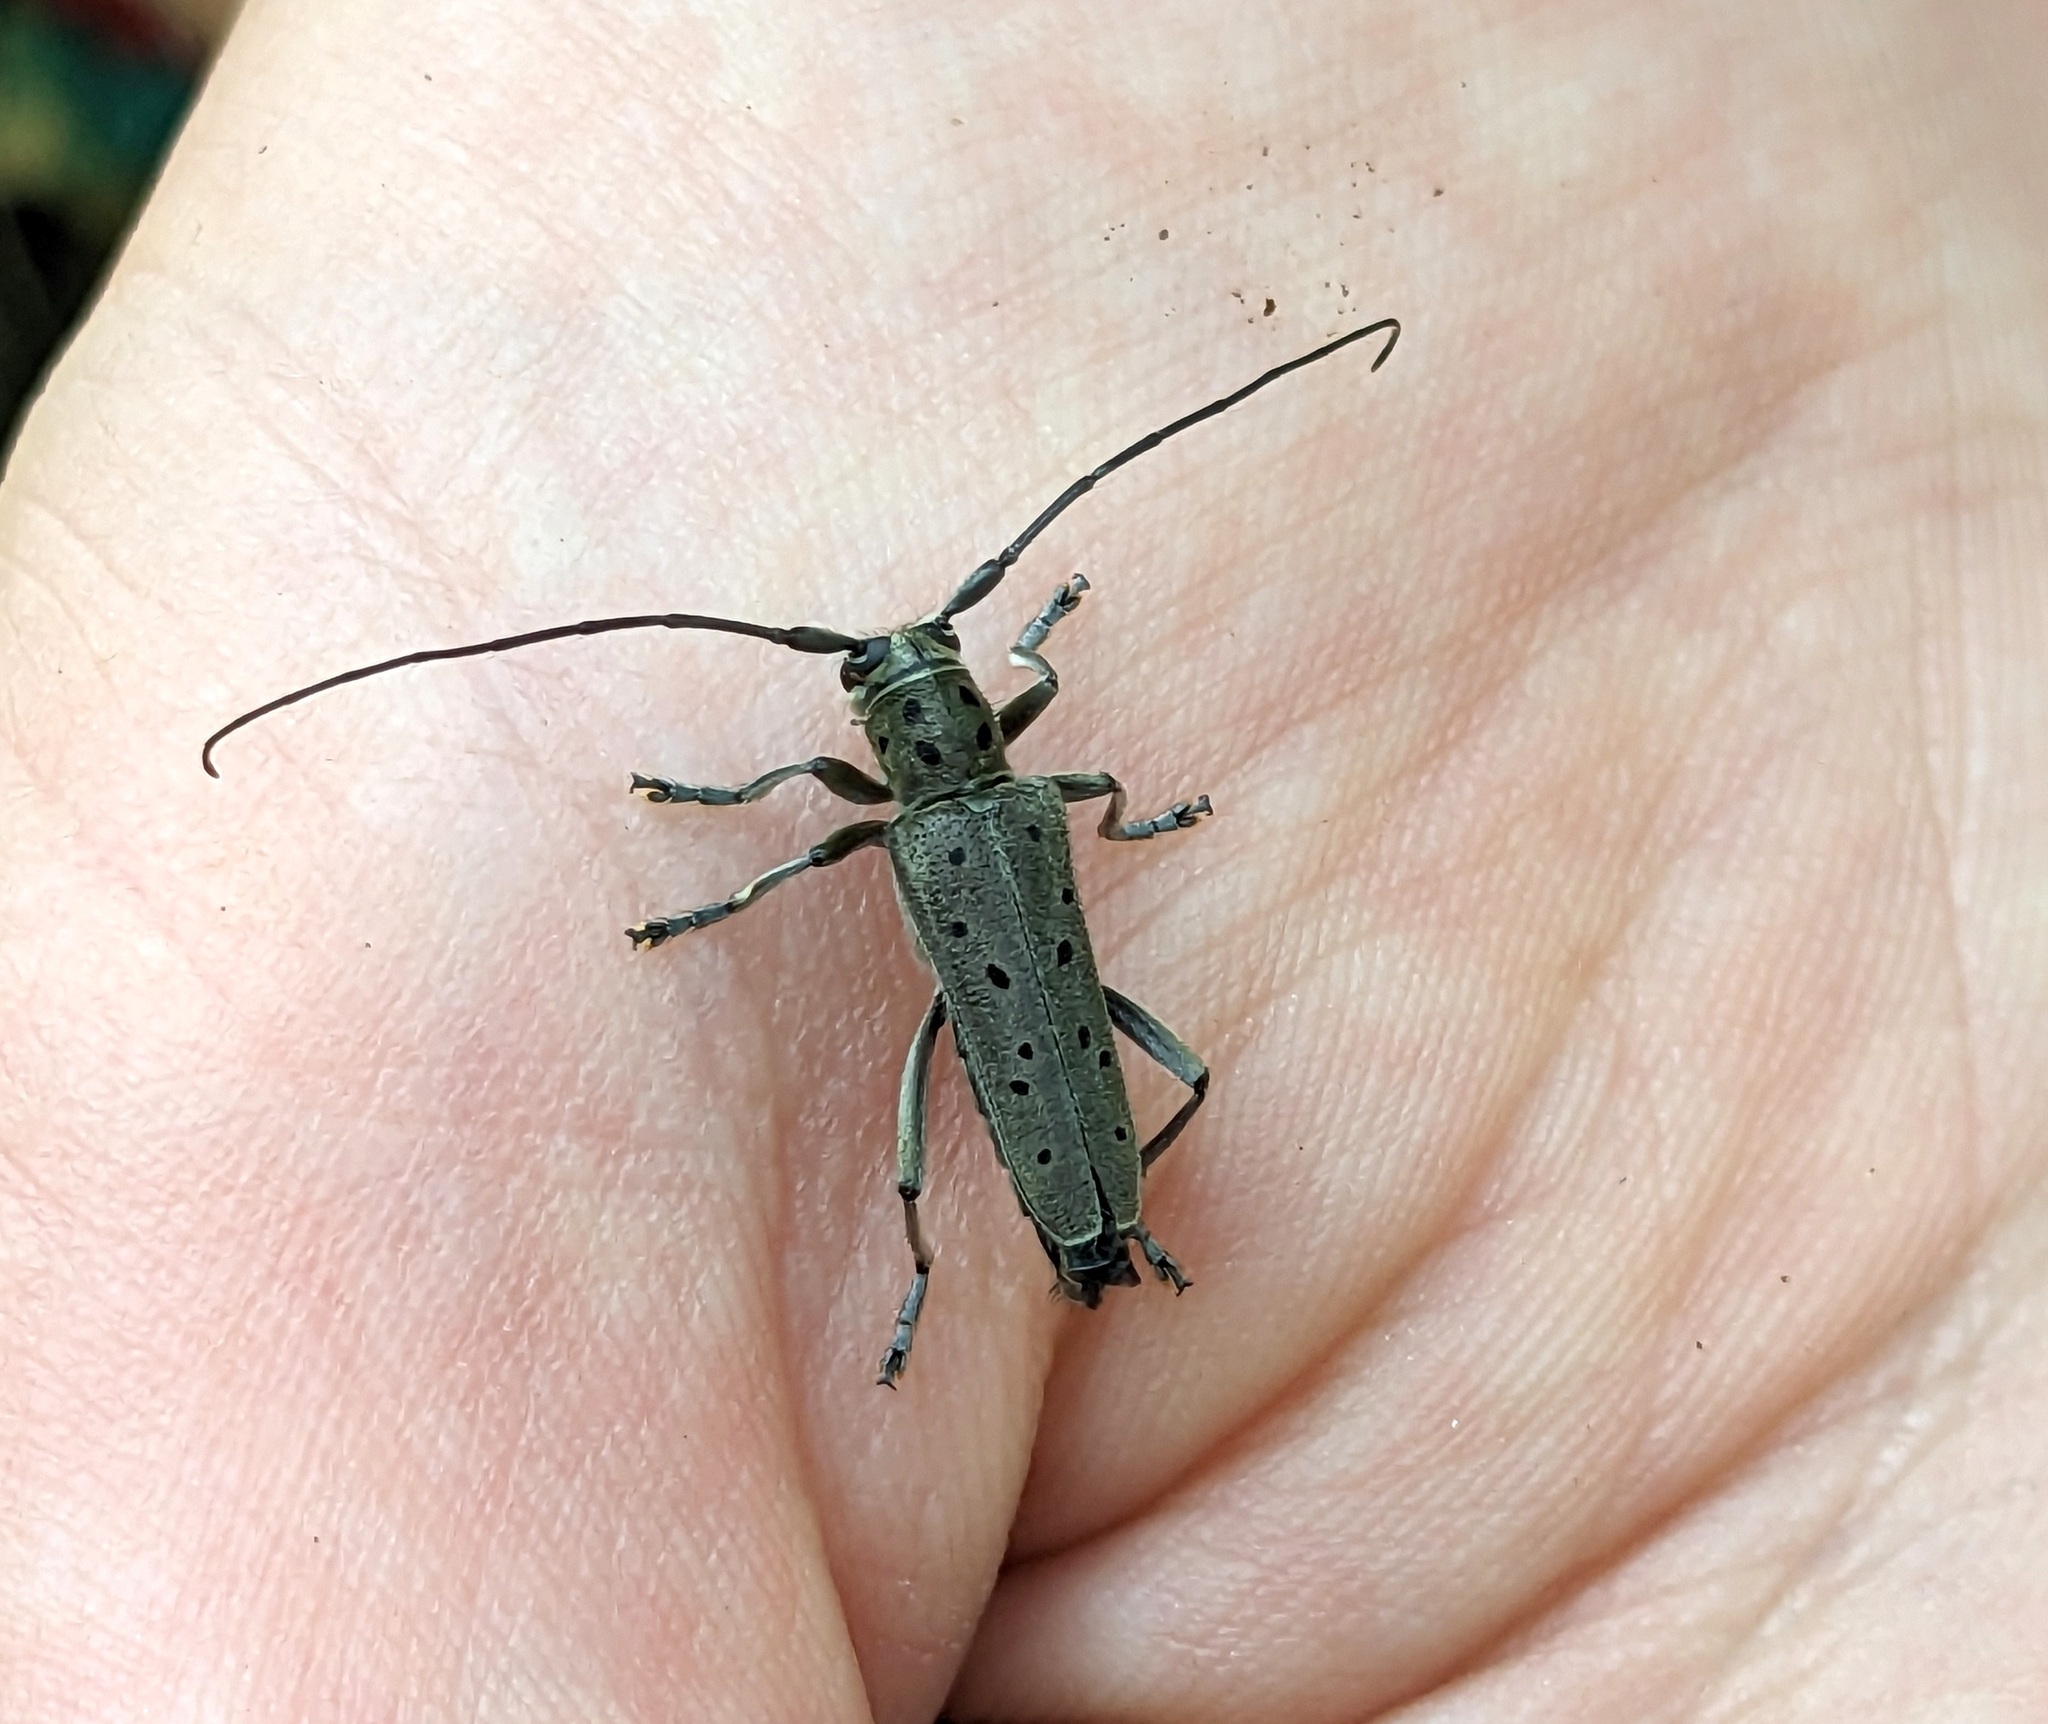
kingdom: Animalia
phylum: Arthropoda
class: Insecta
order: Coleoptera
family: Cerambycidae
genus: Saperda
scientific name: Saperda punctata
